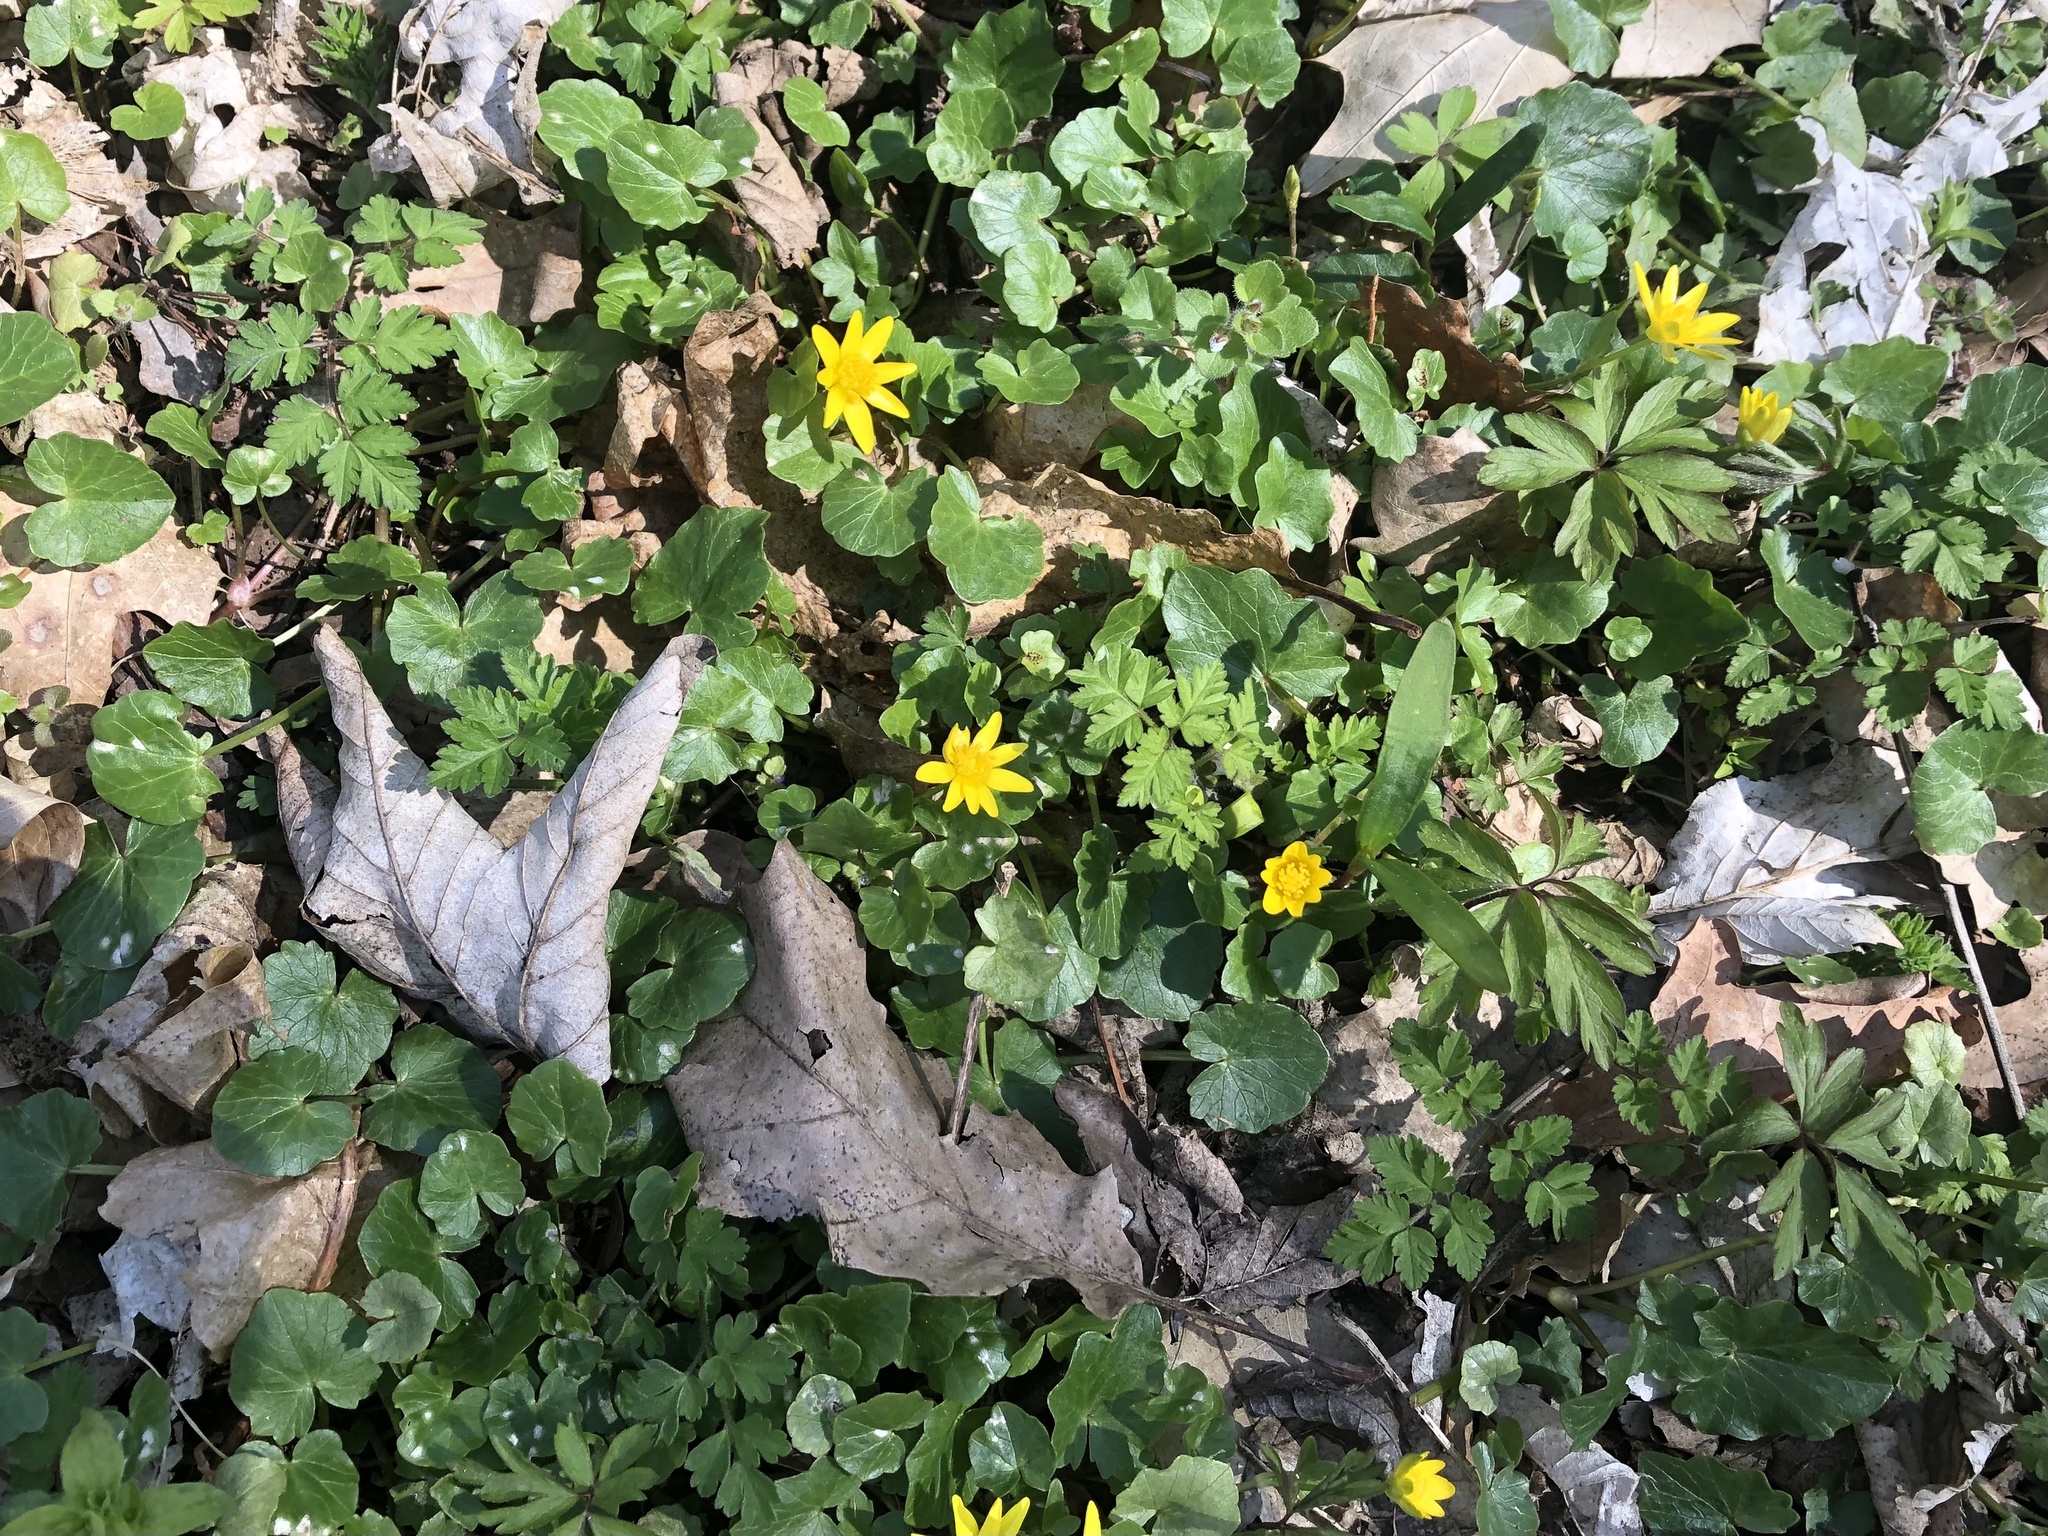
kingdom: Plantae
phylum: Tracheophyta
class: Magnoliopsida
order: Ranunculales
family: Ranunculaceae
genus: Ficaria
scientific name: Ficaria verna
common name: Lesser celandine
